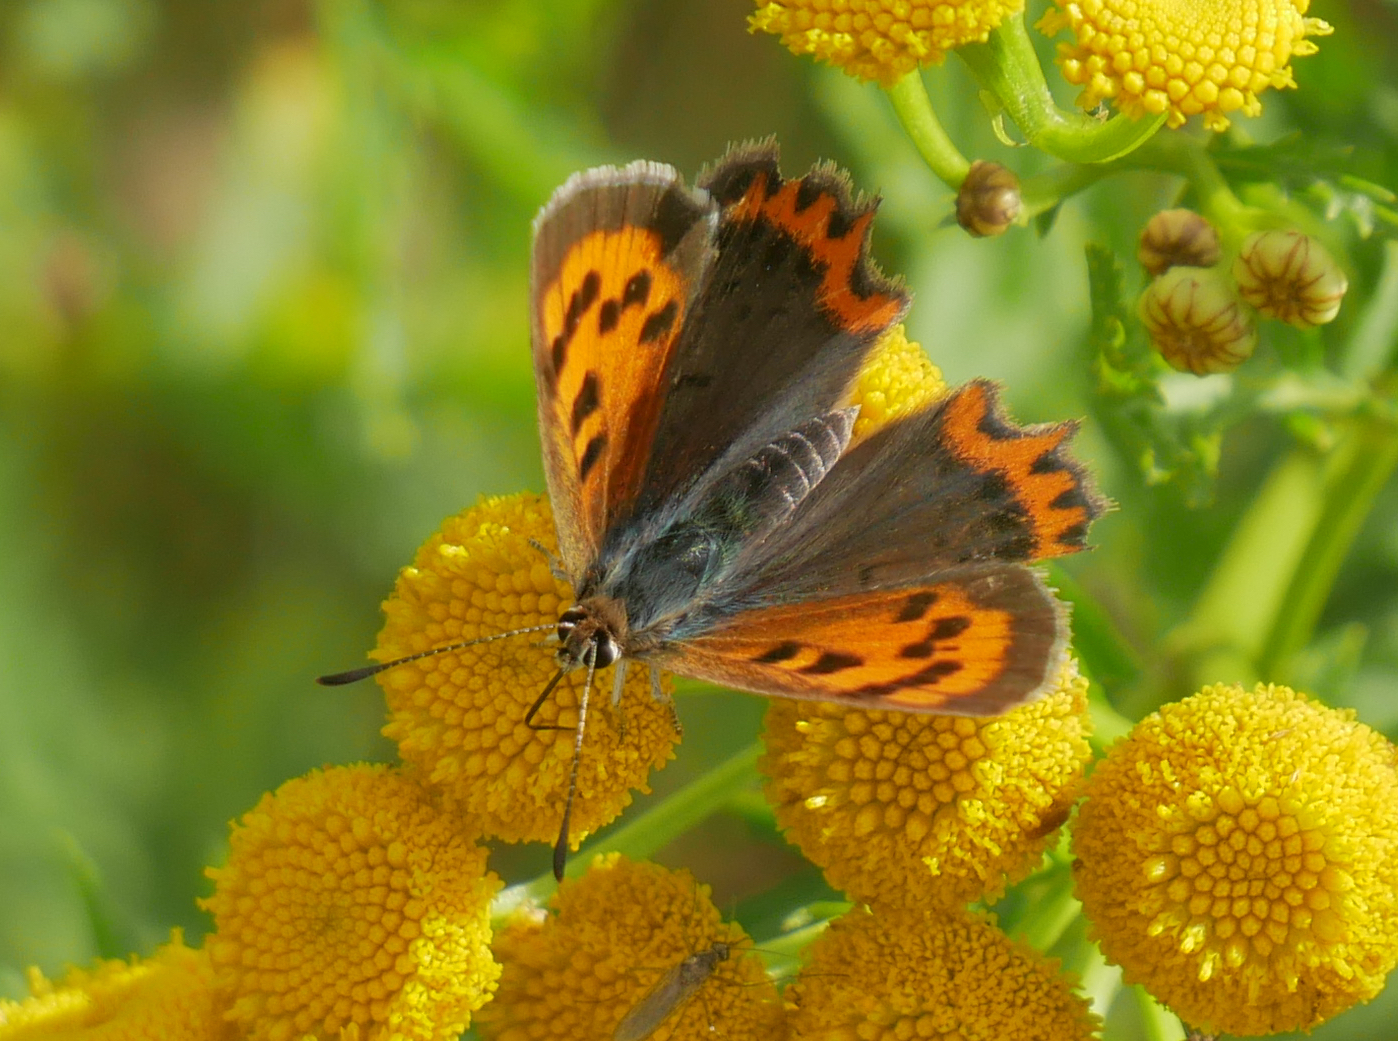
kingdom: Animalia
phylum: Arthropoda
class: Insecta
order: Lepidoptera
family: Lycaenidae
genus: Lycaena
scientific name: Lycaena phlaeas
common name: Small copper
